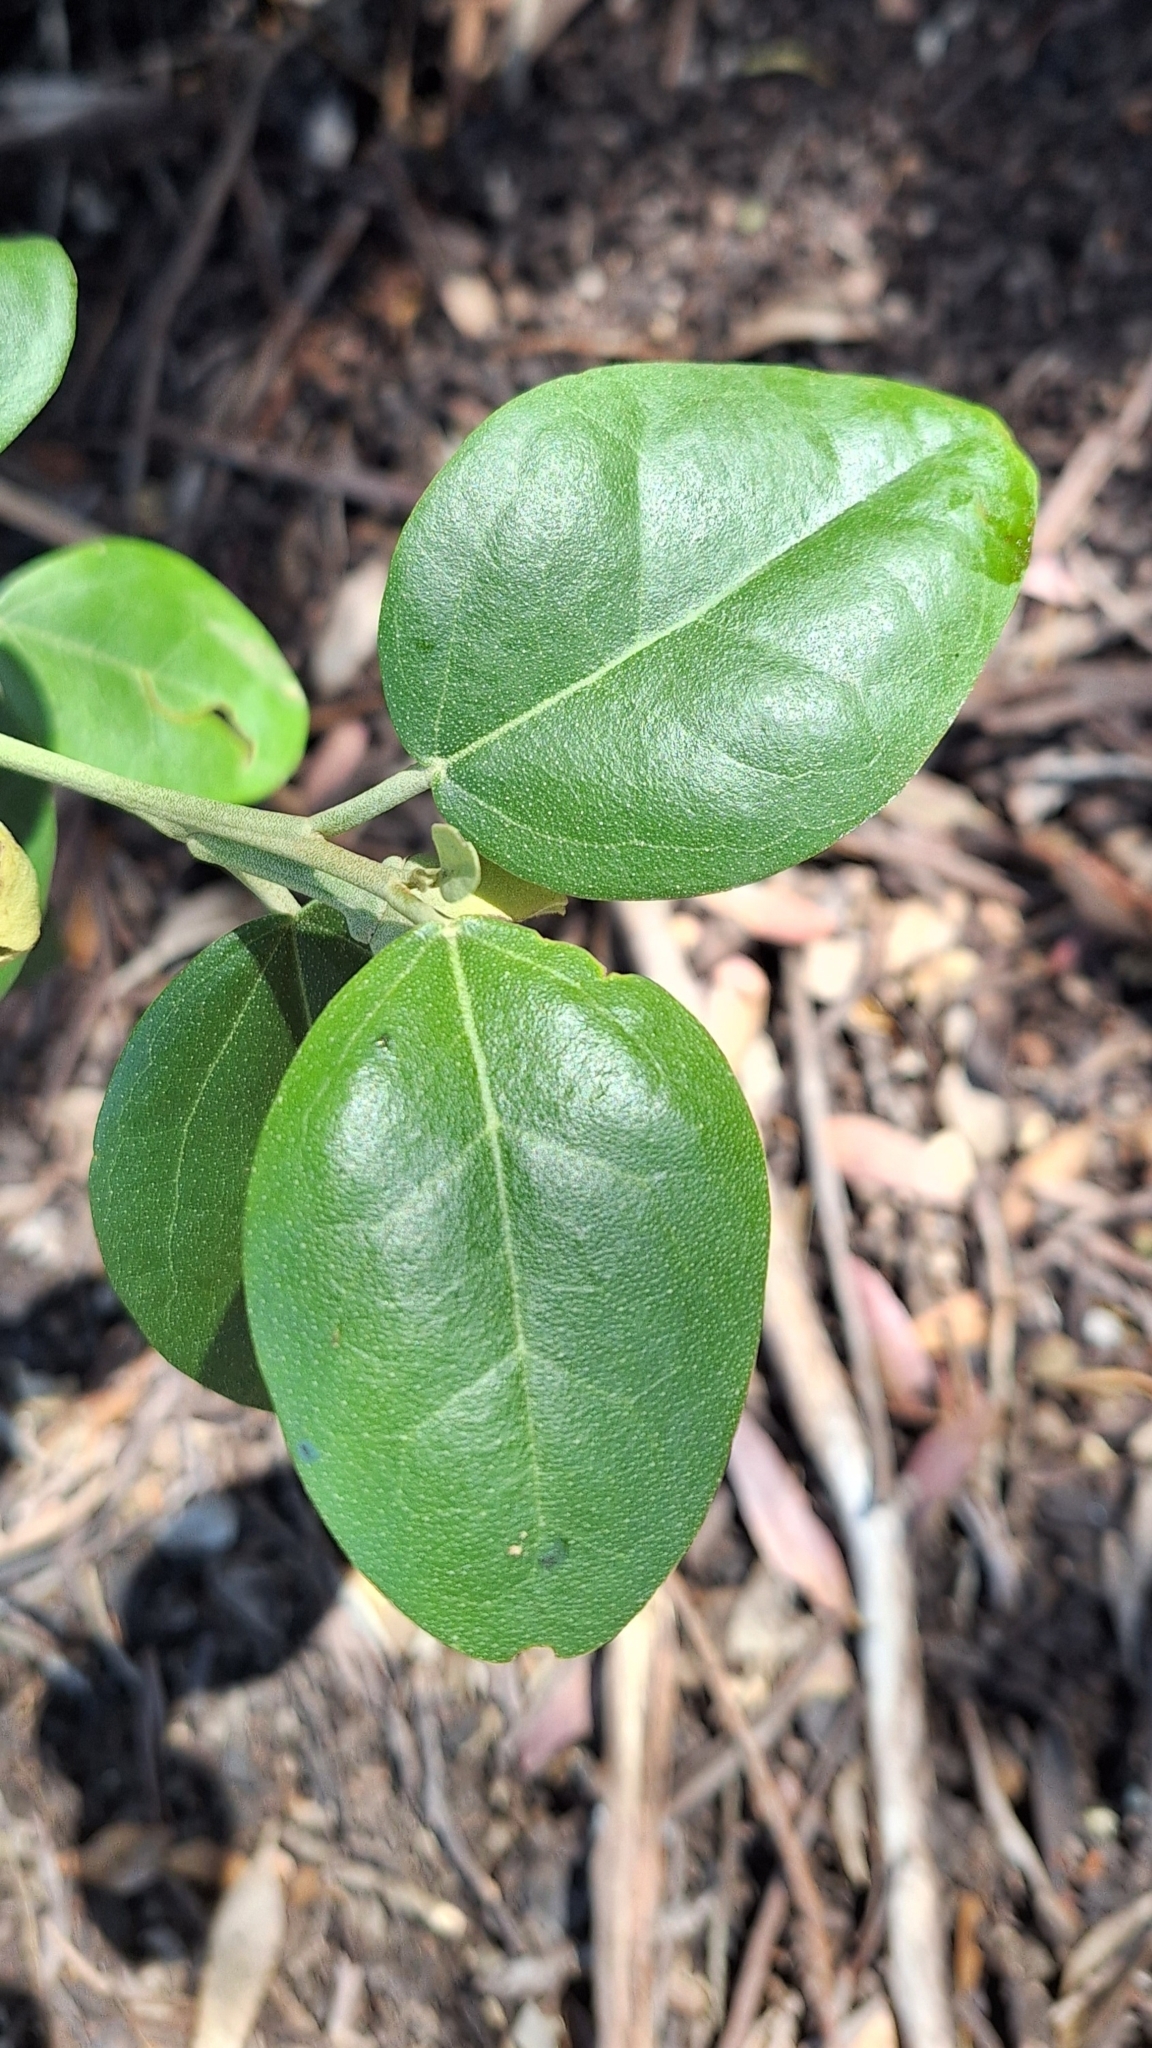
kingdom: Plantae
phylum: Tracheophyta
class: Magnoliopsida
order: Malvales
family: Malvaceae
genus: Lagunaria
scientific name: Lagunaria patersonia
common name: Cow itch tree
